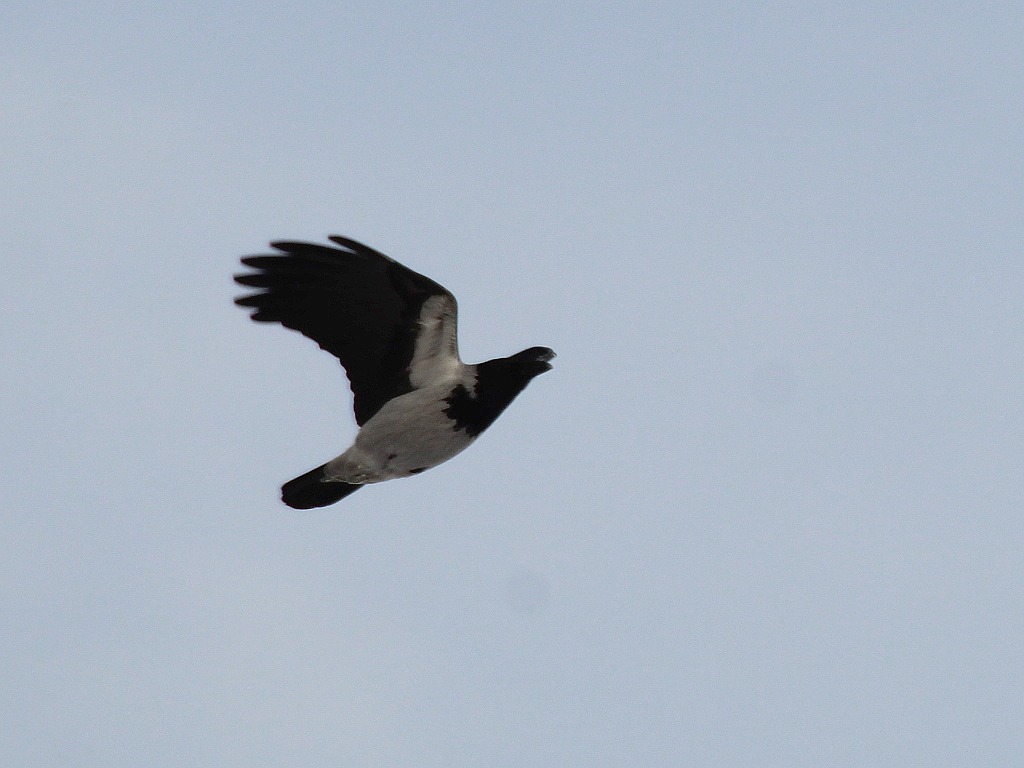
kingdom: Animalia
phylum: Chordata
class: Aves
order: Passeriformes
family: Corvidae
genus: Corvus
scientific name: Corvus cornix
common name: Hooded crow
